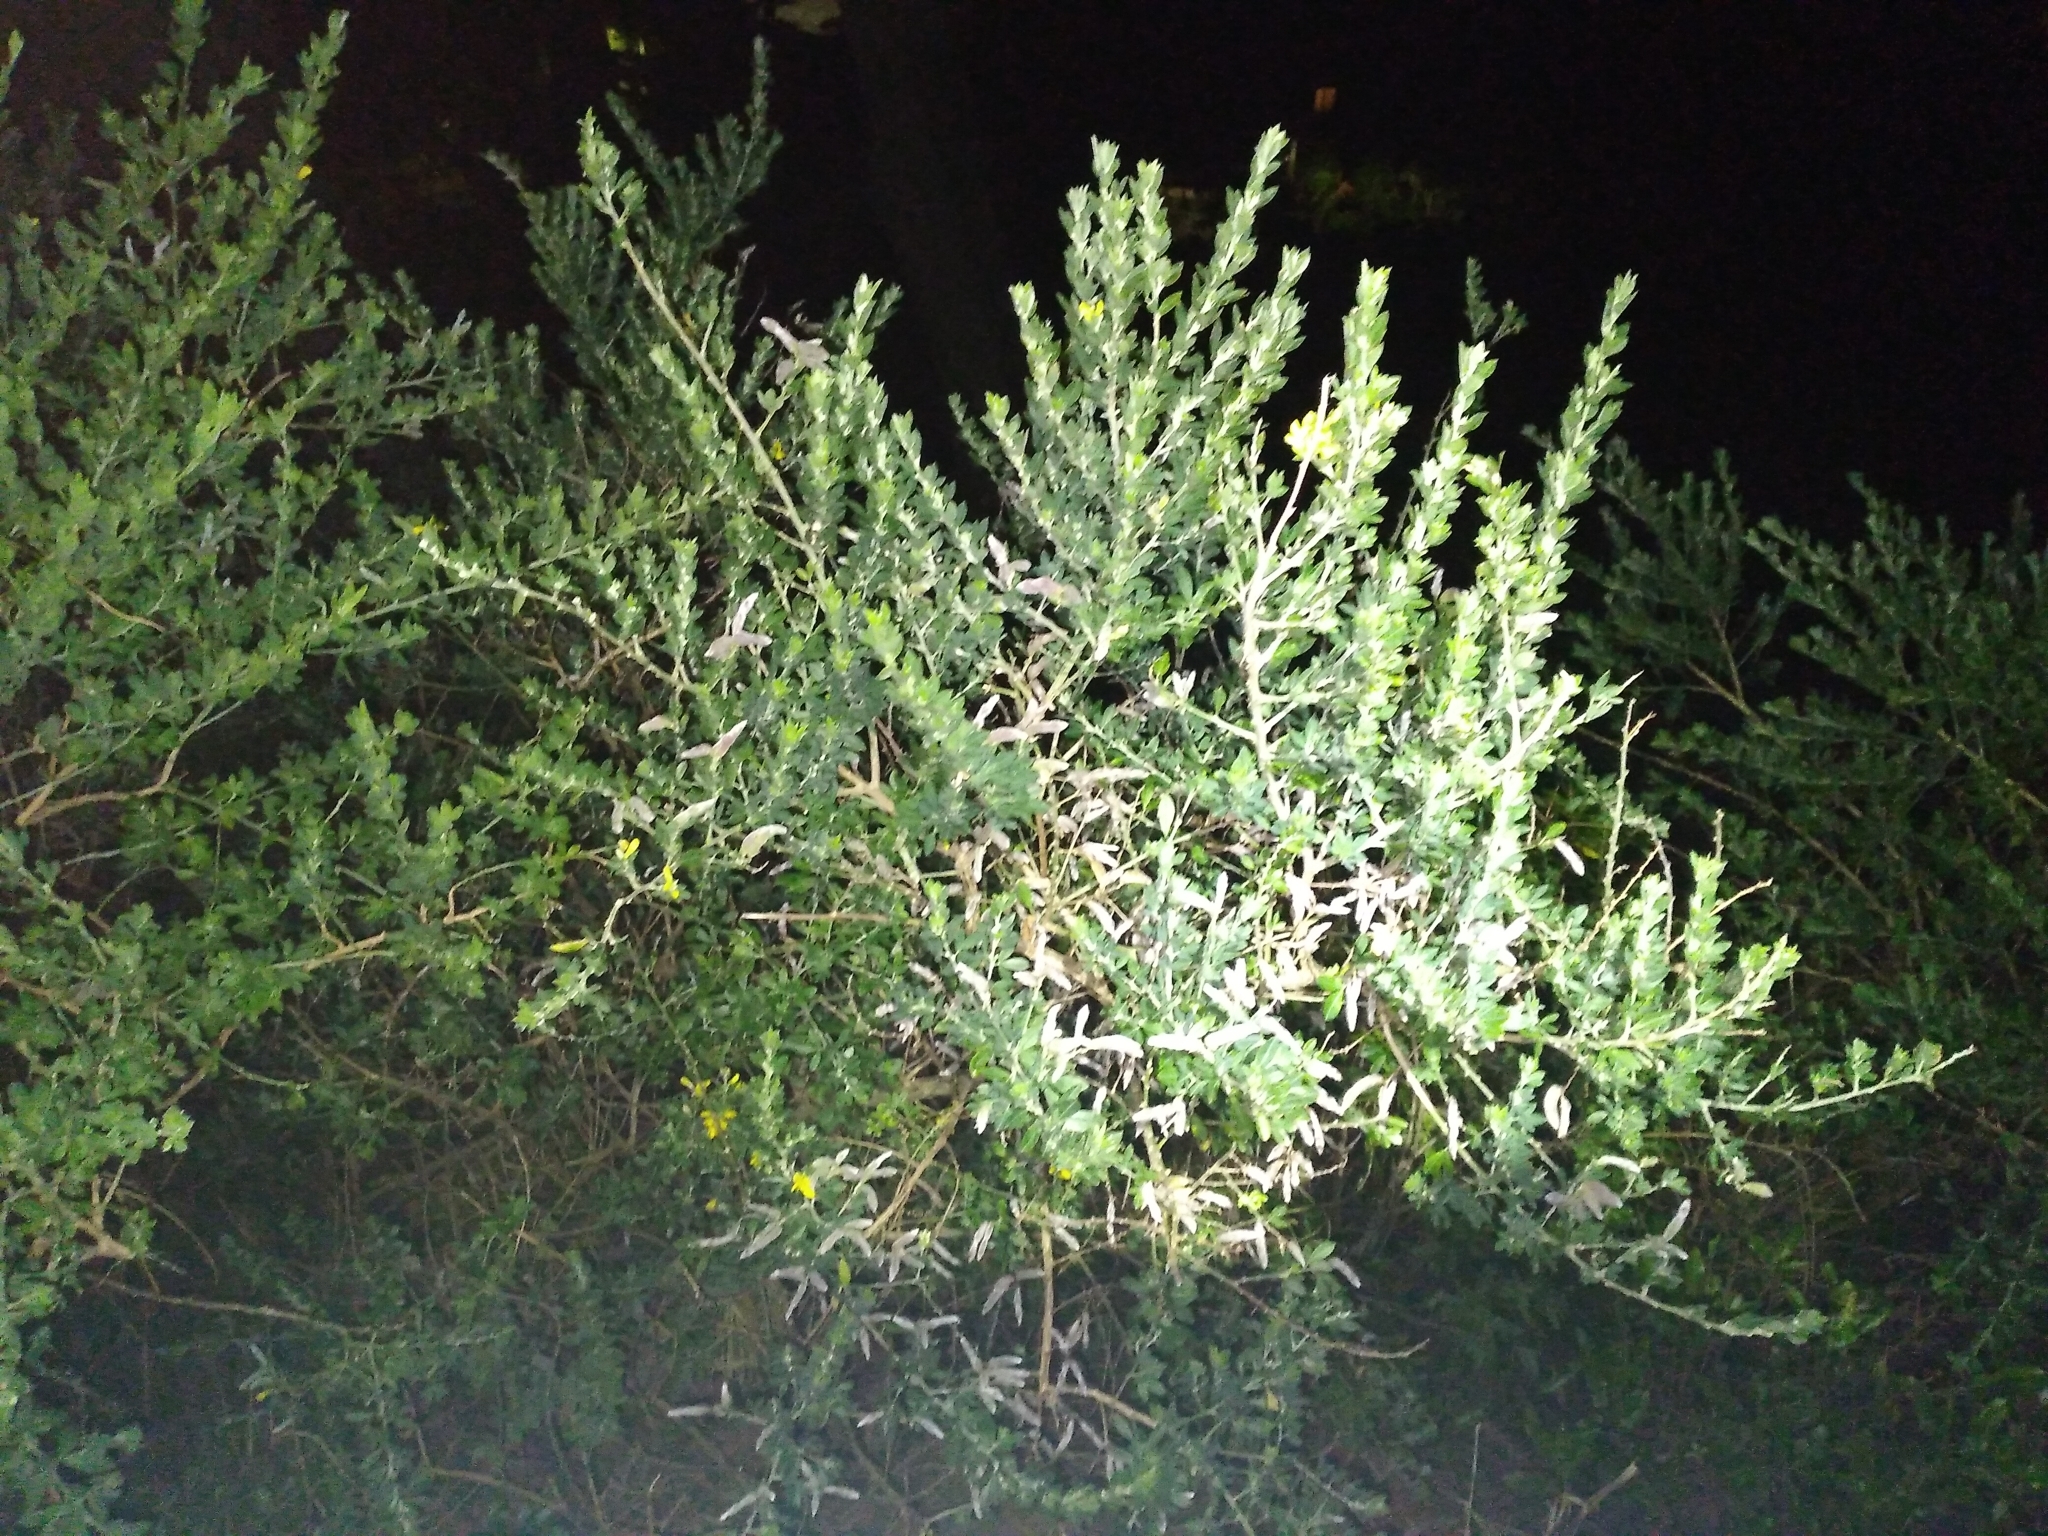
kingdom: Plantae
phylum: Tracheophyta
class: Magnoliopsida
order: Fabales
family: Fabaceae
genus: Genista
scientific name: Genista monspessulana
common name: Montpellier broom
